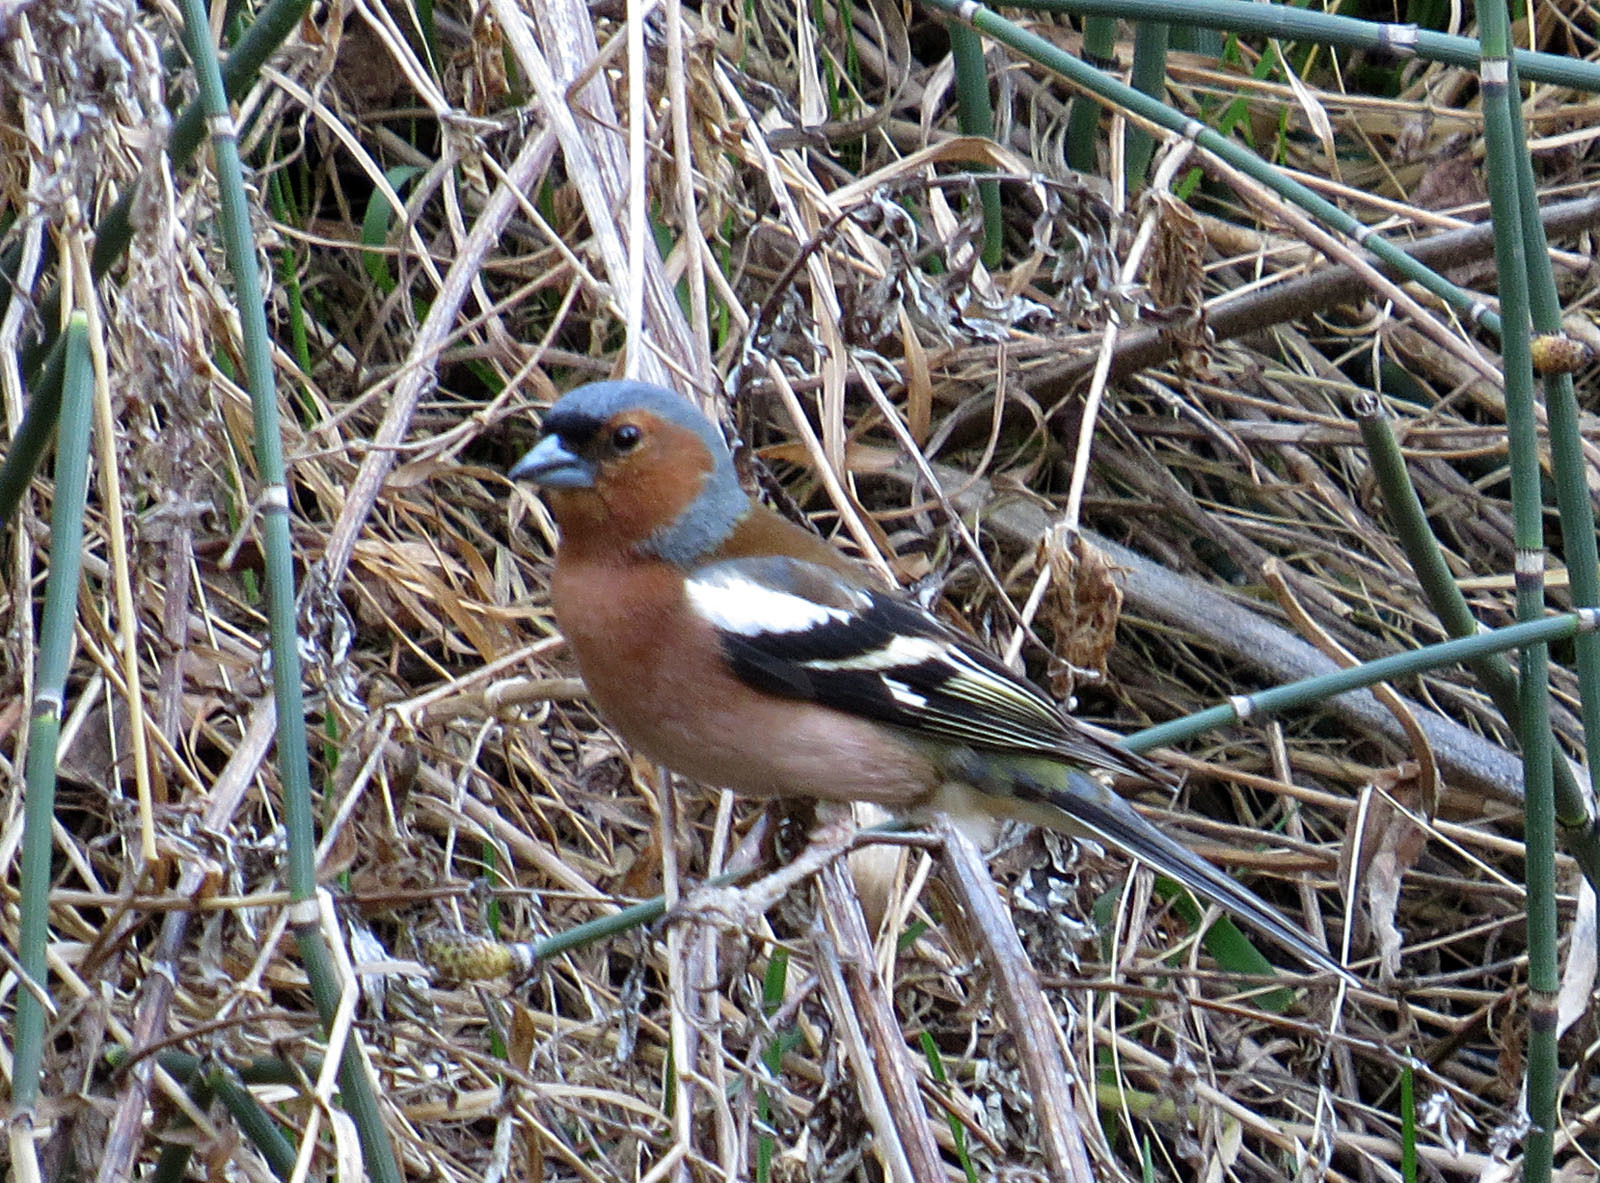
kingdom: Animalia
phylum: Chordata
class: Aves
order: Passeriformes
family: Fringillidae
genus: Fringilla
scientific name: Fringilla coelebs
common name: Common chaffinch
